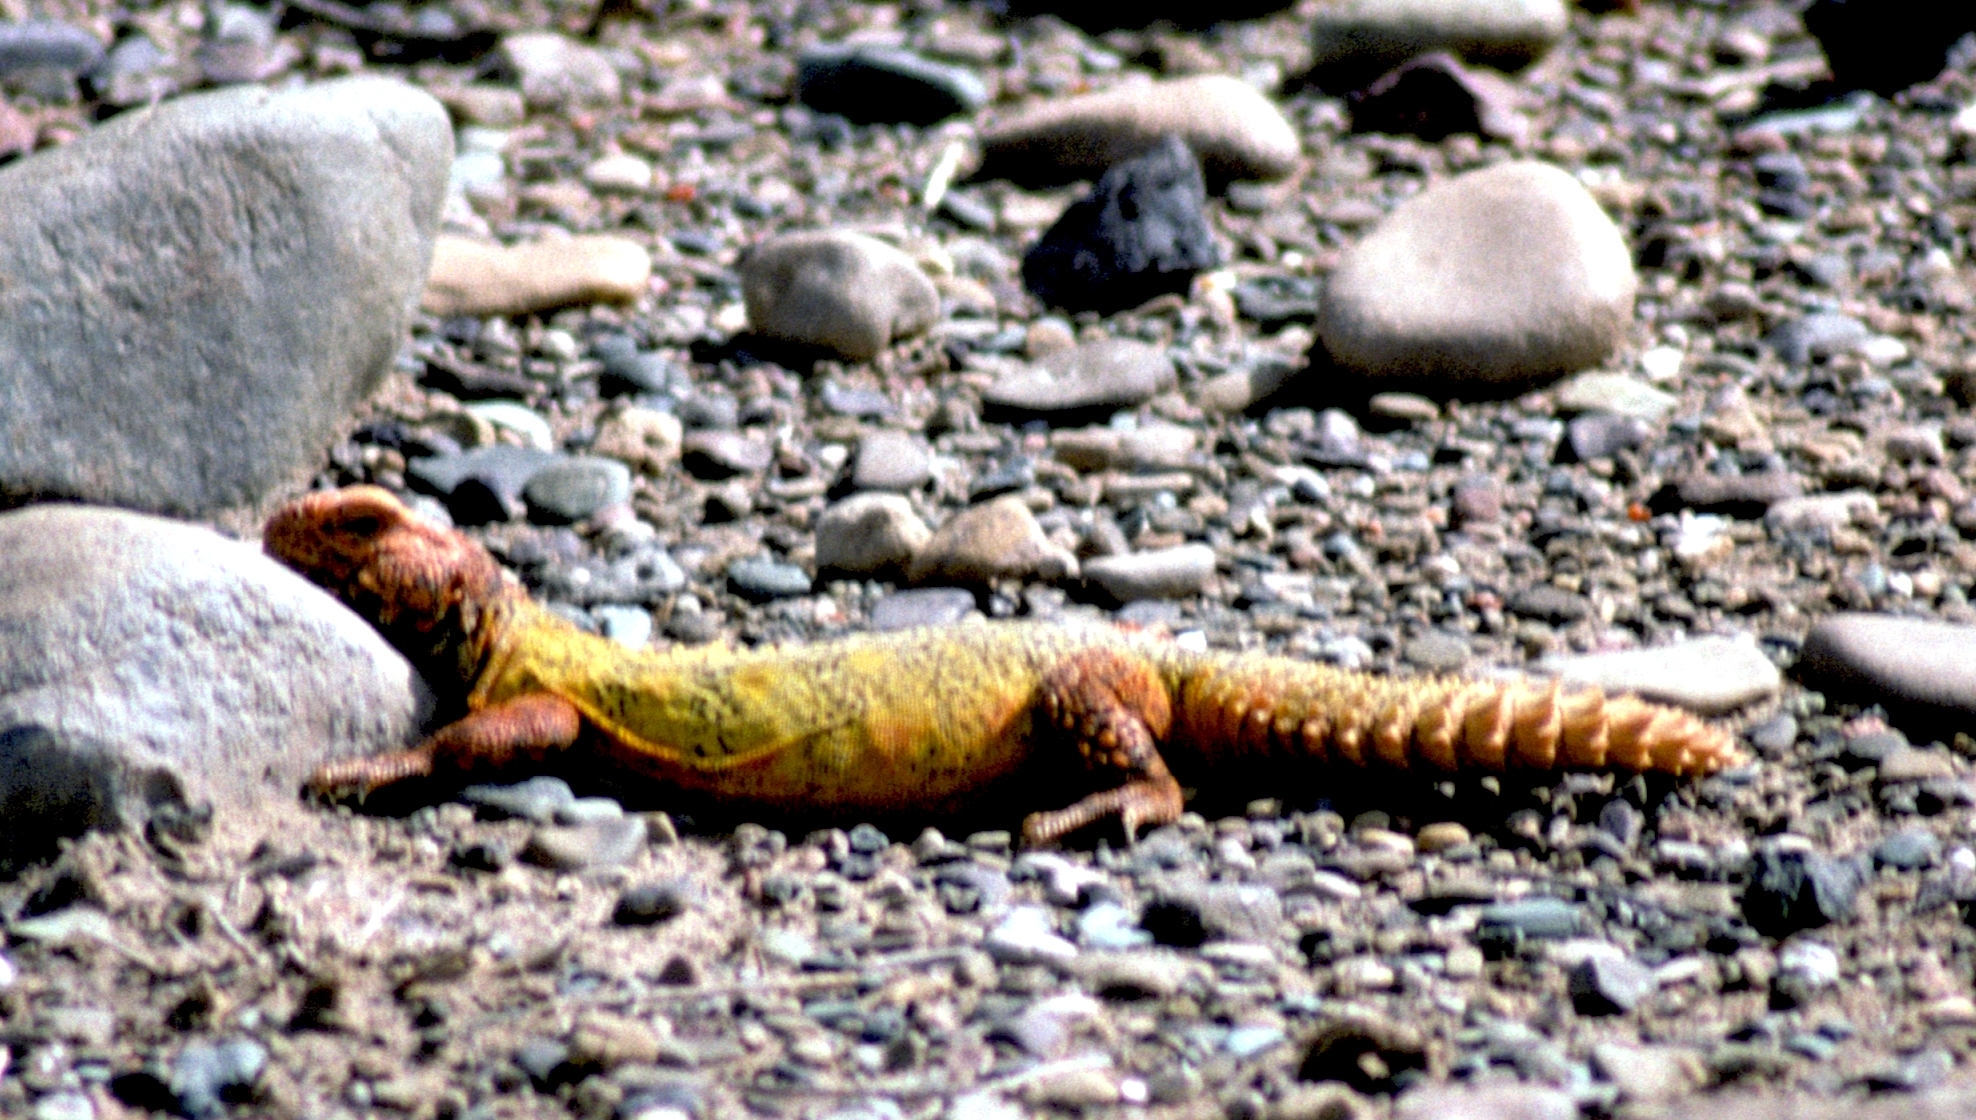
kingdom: Animalia
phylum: Chordata
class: Squamata
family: Agamidae
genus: Uromastyx
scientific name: Uromastyx nigriventris
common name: Moroccan spiny-tailed lizard
